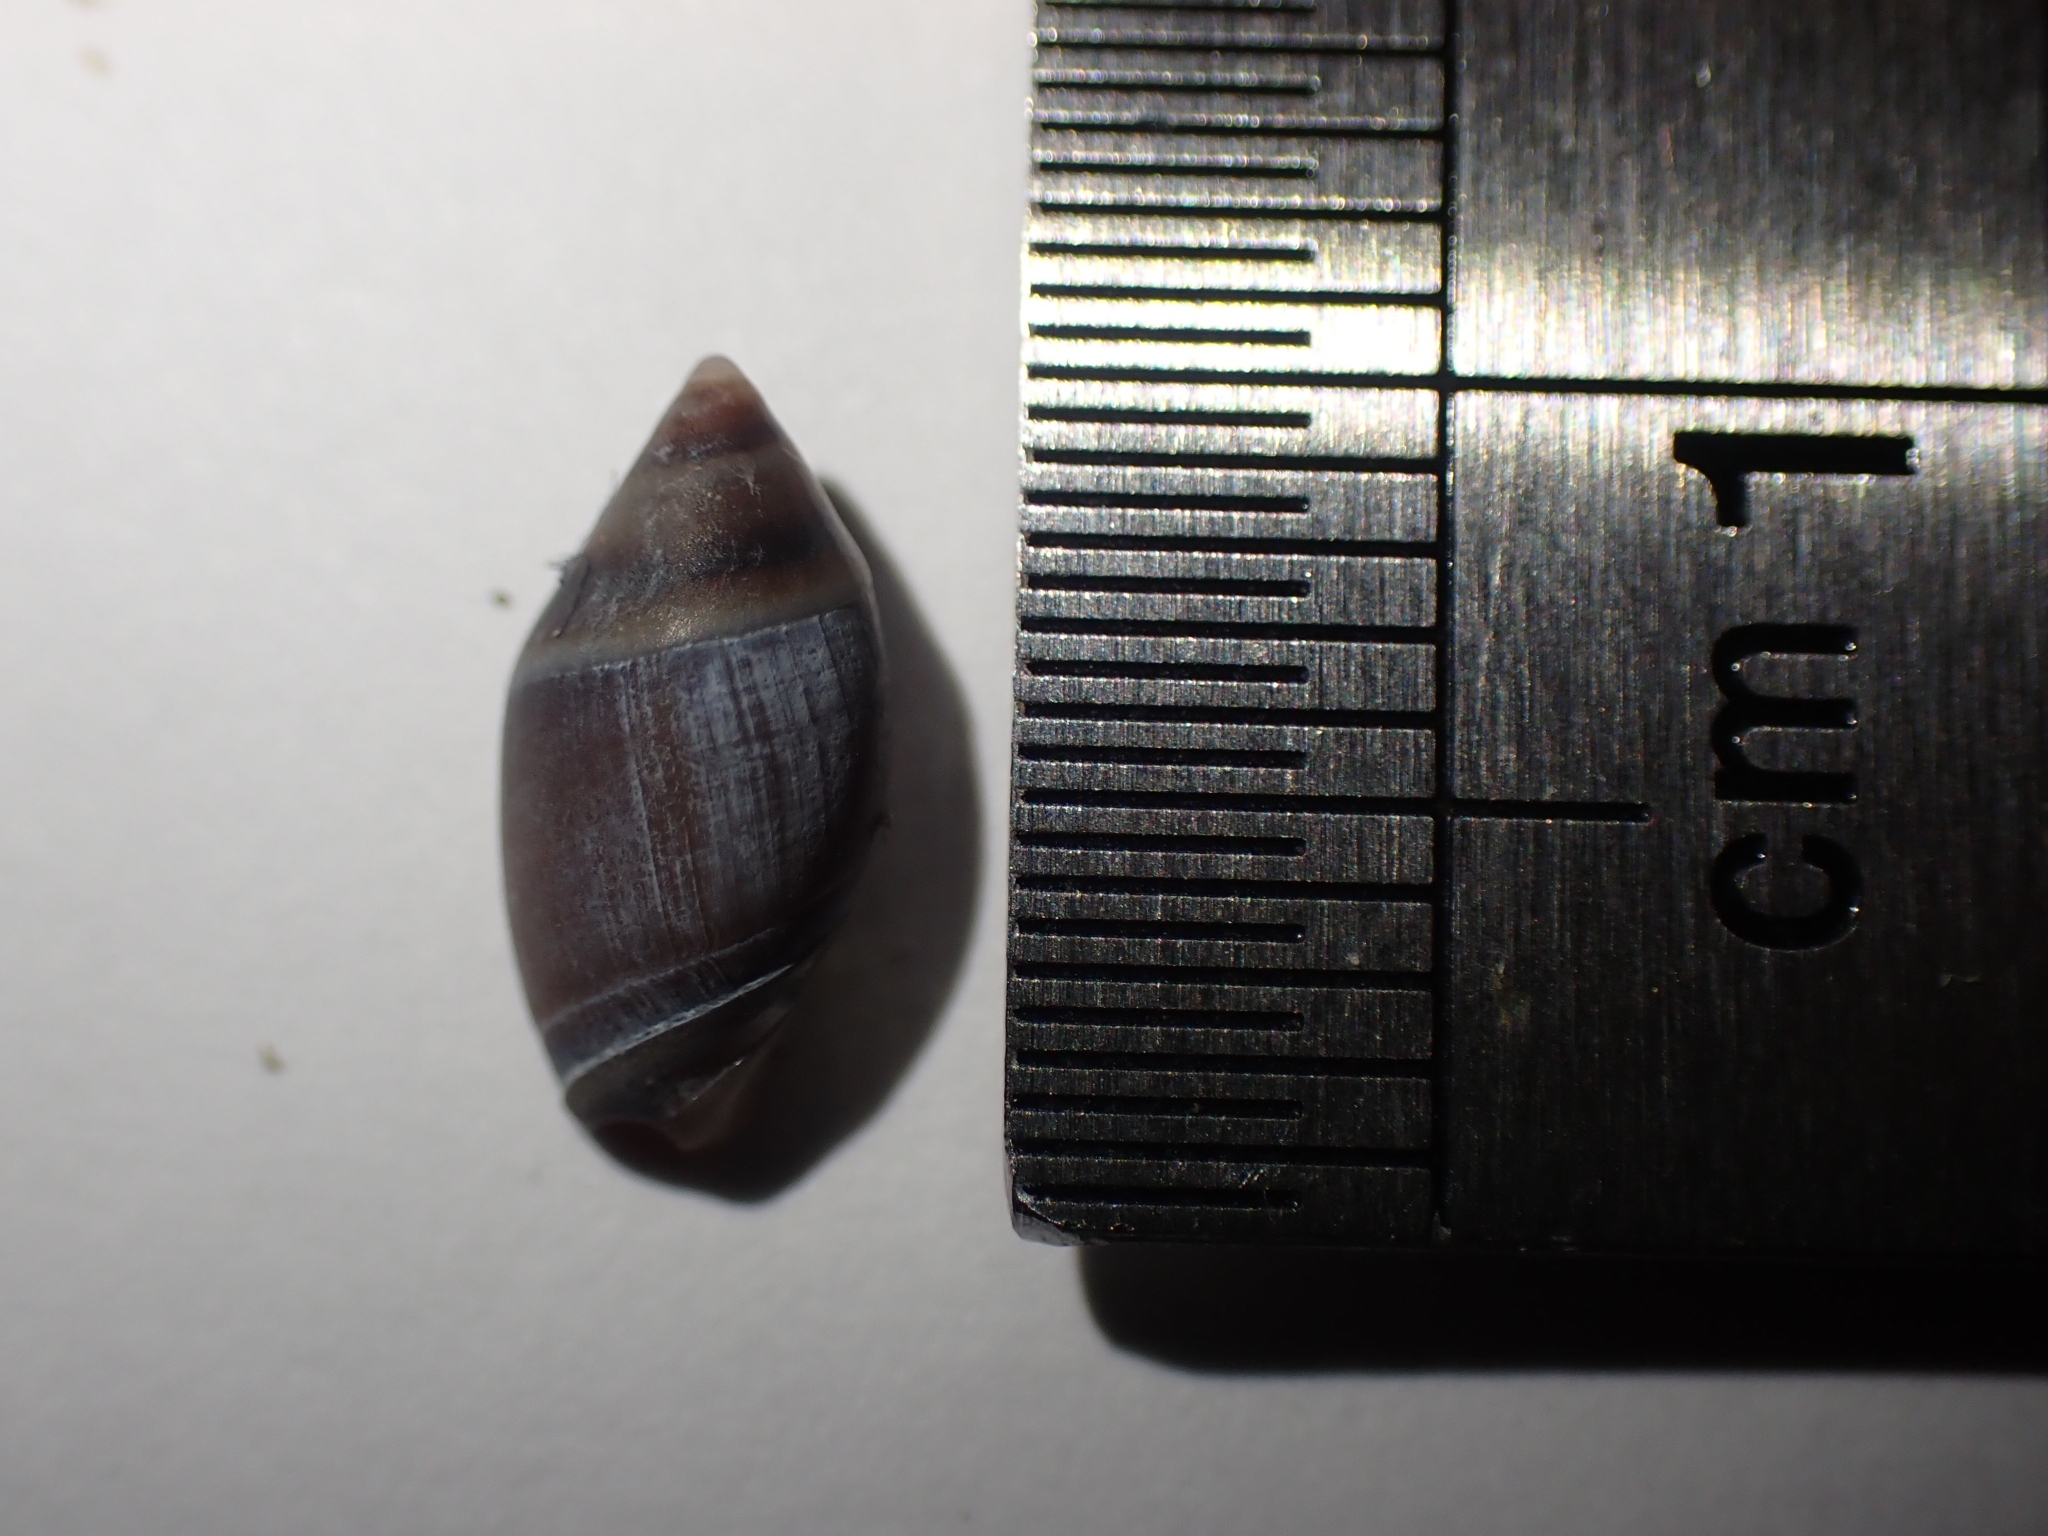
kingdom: Animalia
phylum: Mollusca
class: Gastropoda
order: Neogastropoda
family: Ancillariidae
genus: Amalda
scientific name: Amalda australis
